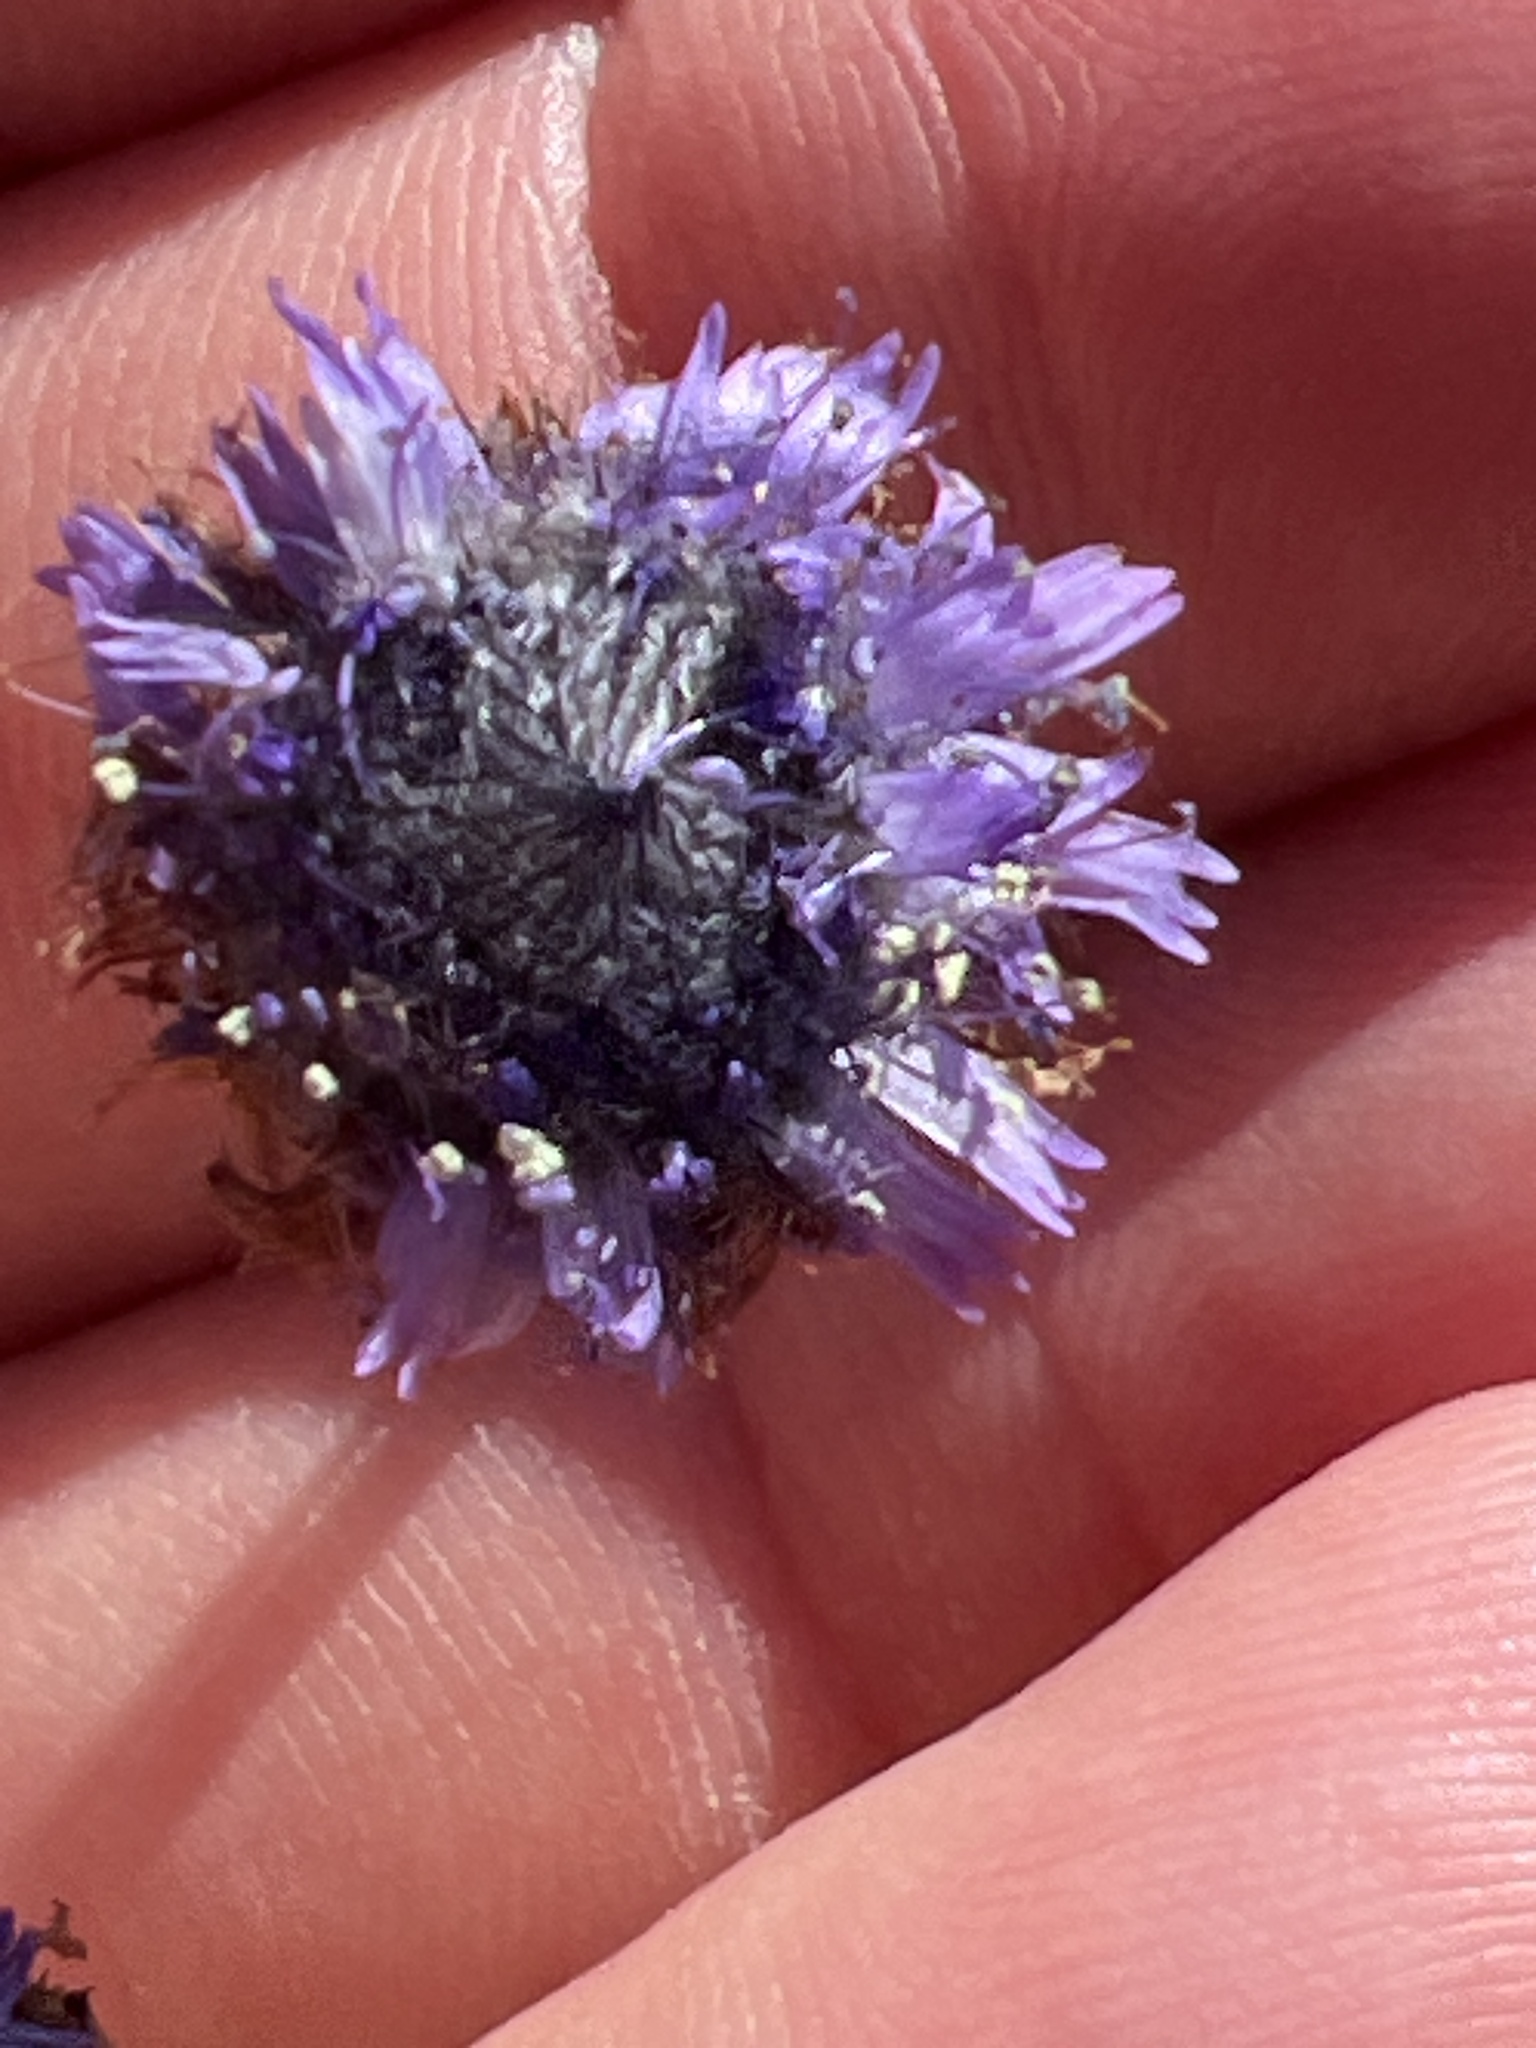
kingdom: Plantae
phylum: Tracheophyta
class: Magnoliopsida
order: Lamiales
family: Plantaginaceae
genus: Globularia
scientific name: Globularia alypum
